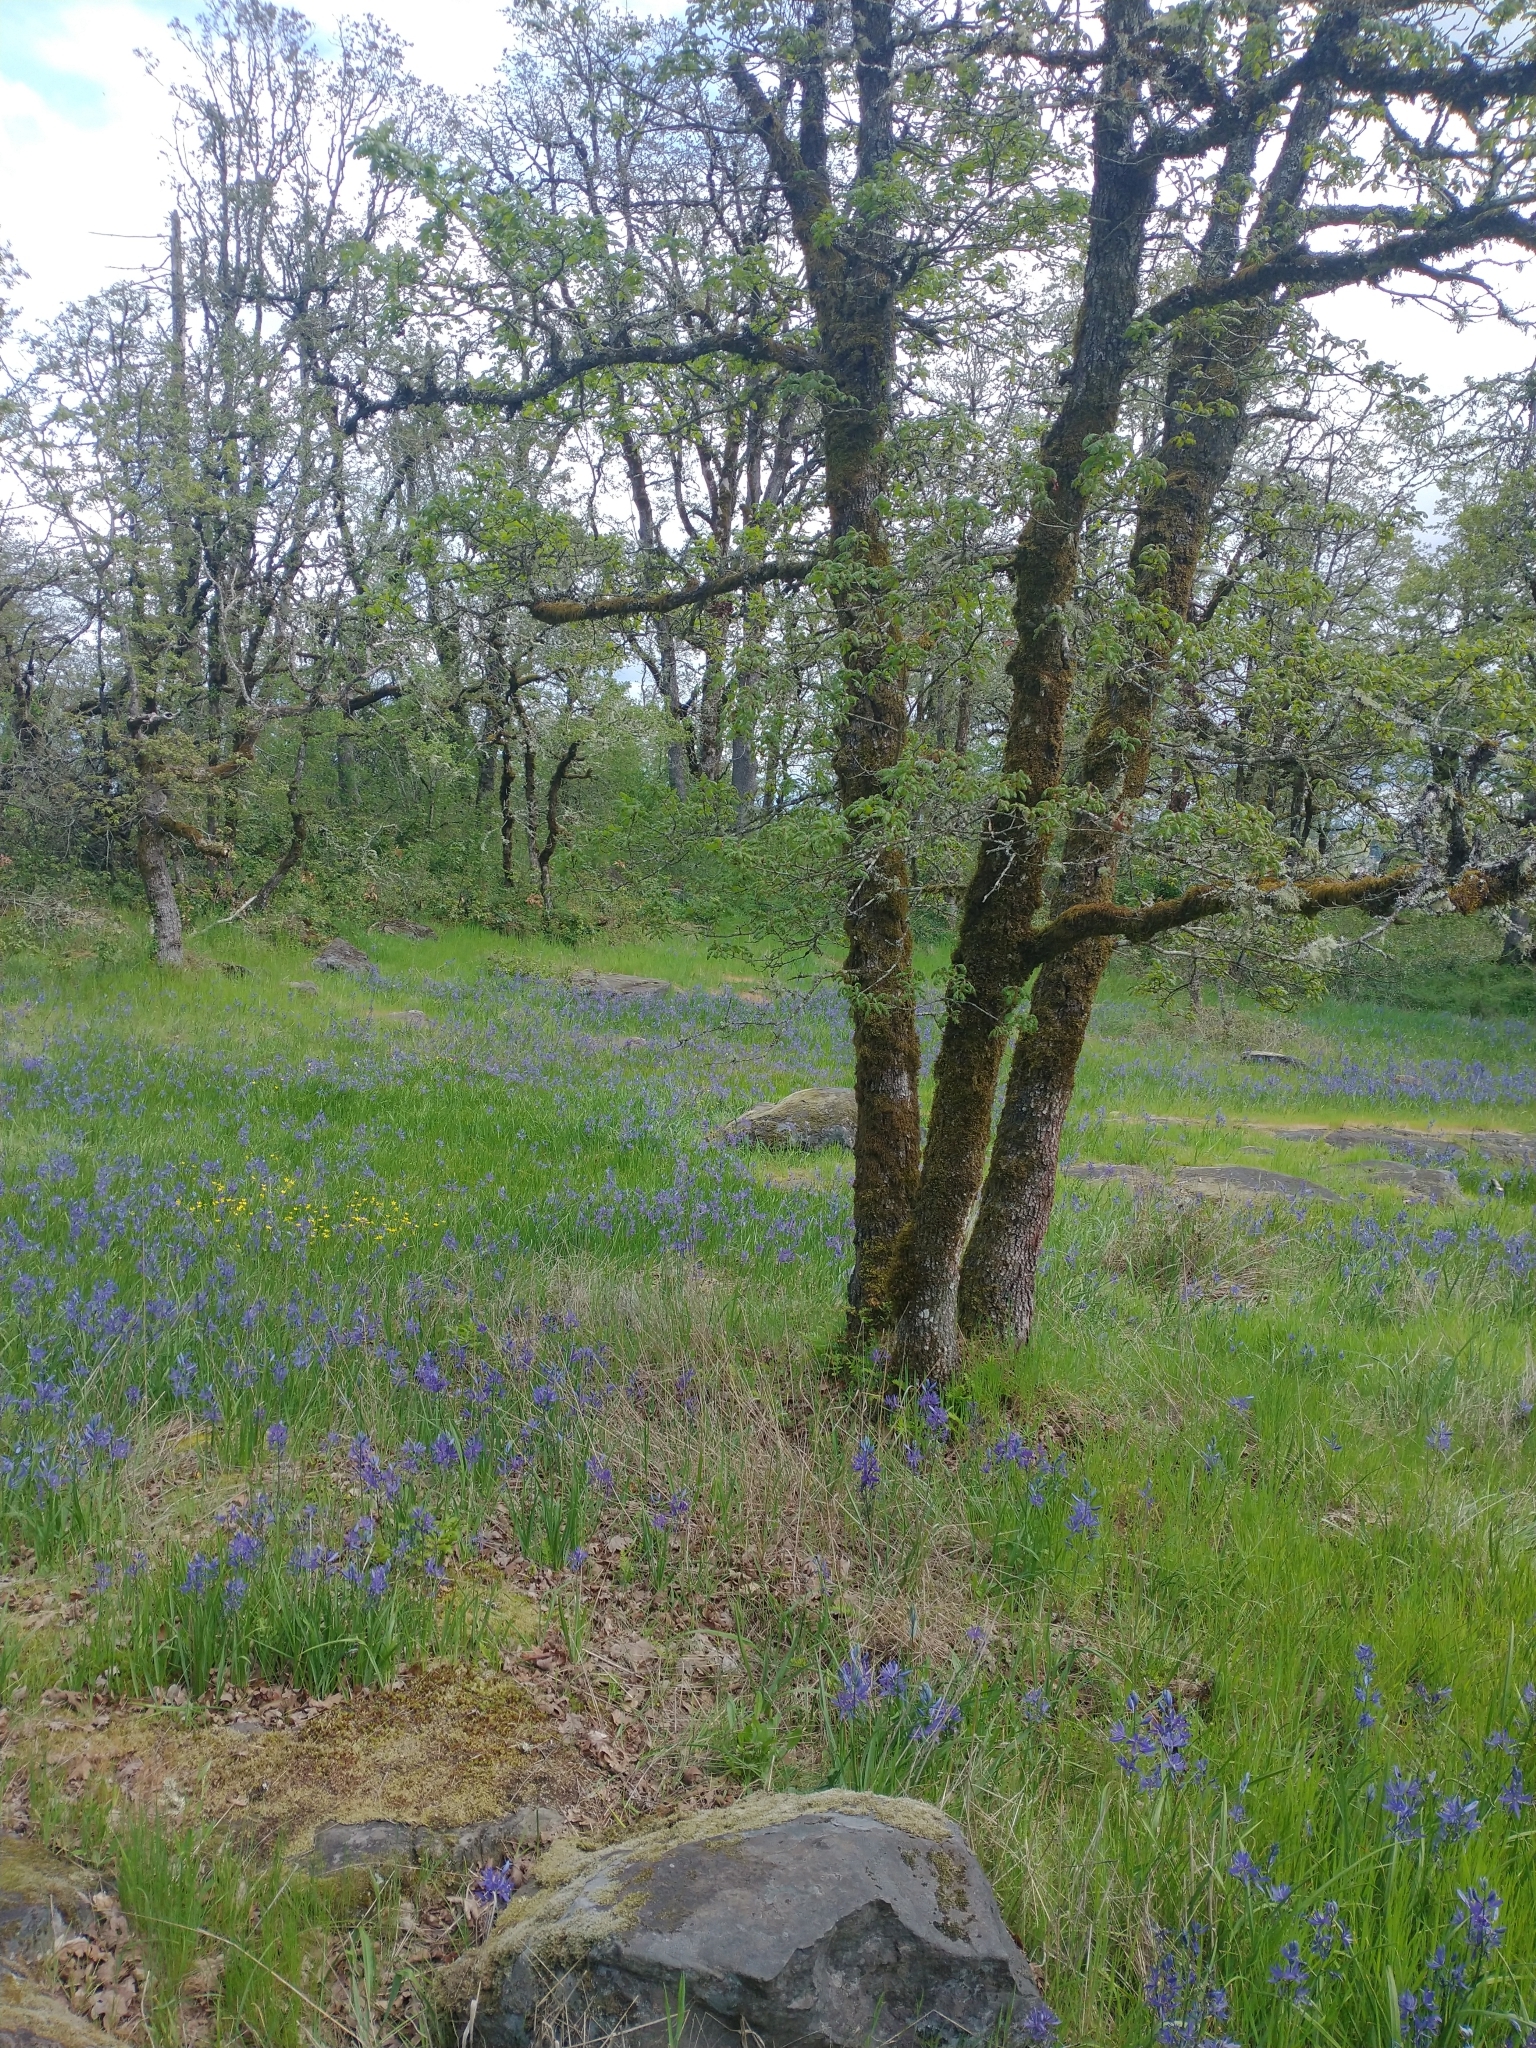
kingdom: Plantae
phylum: Tracheophyta
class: Magnoliopsida
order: Fagales
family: Fagaceae
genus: Quercus
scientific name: Quercus garryana
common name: Garry oak
